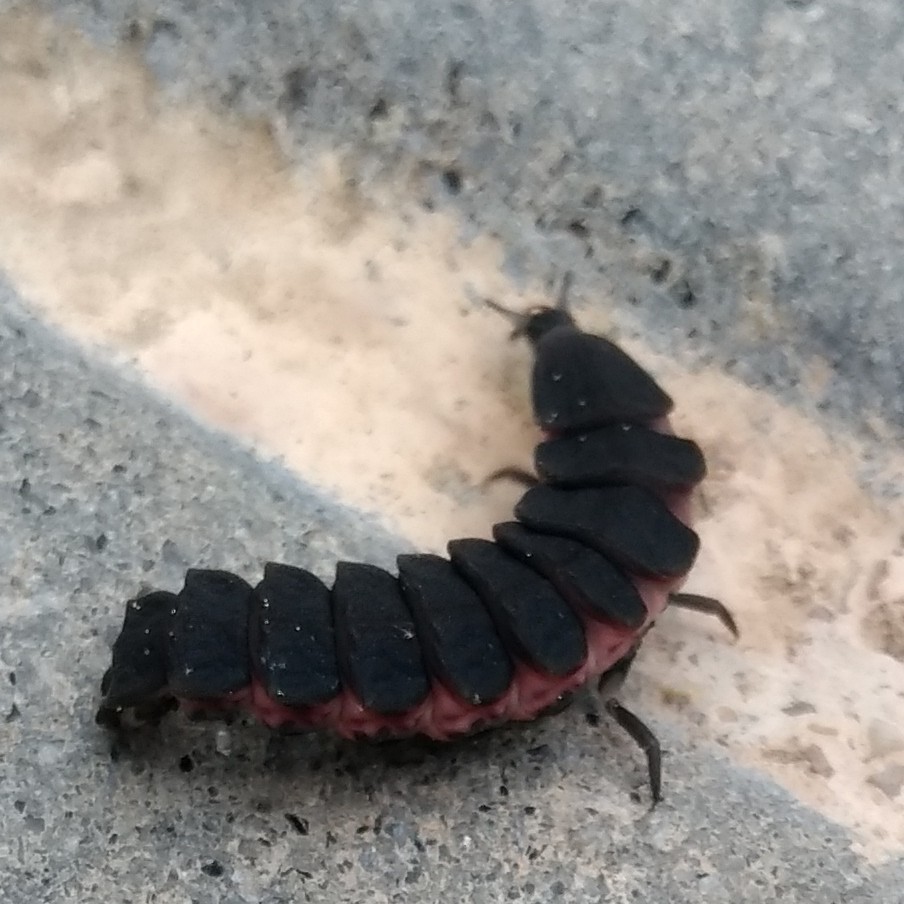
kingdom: Animalia
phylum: Arthropoda
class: Insecta
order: Coleoptera
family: Lampyridae
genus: Nyctophila
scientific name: Nyctophila reichii
